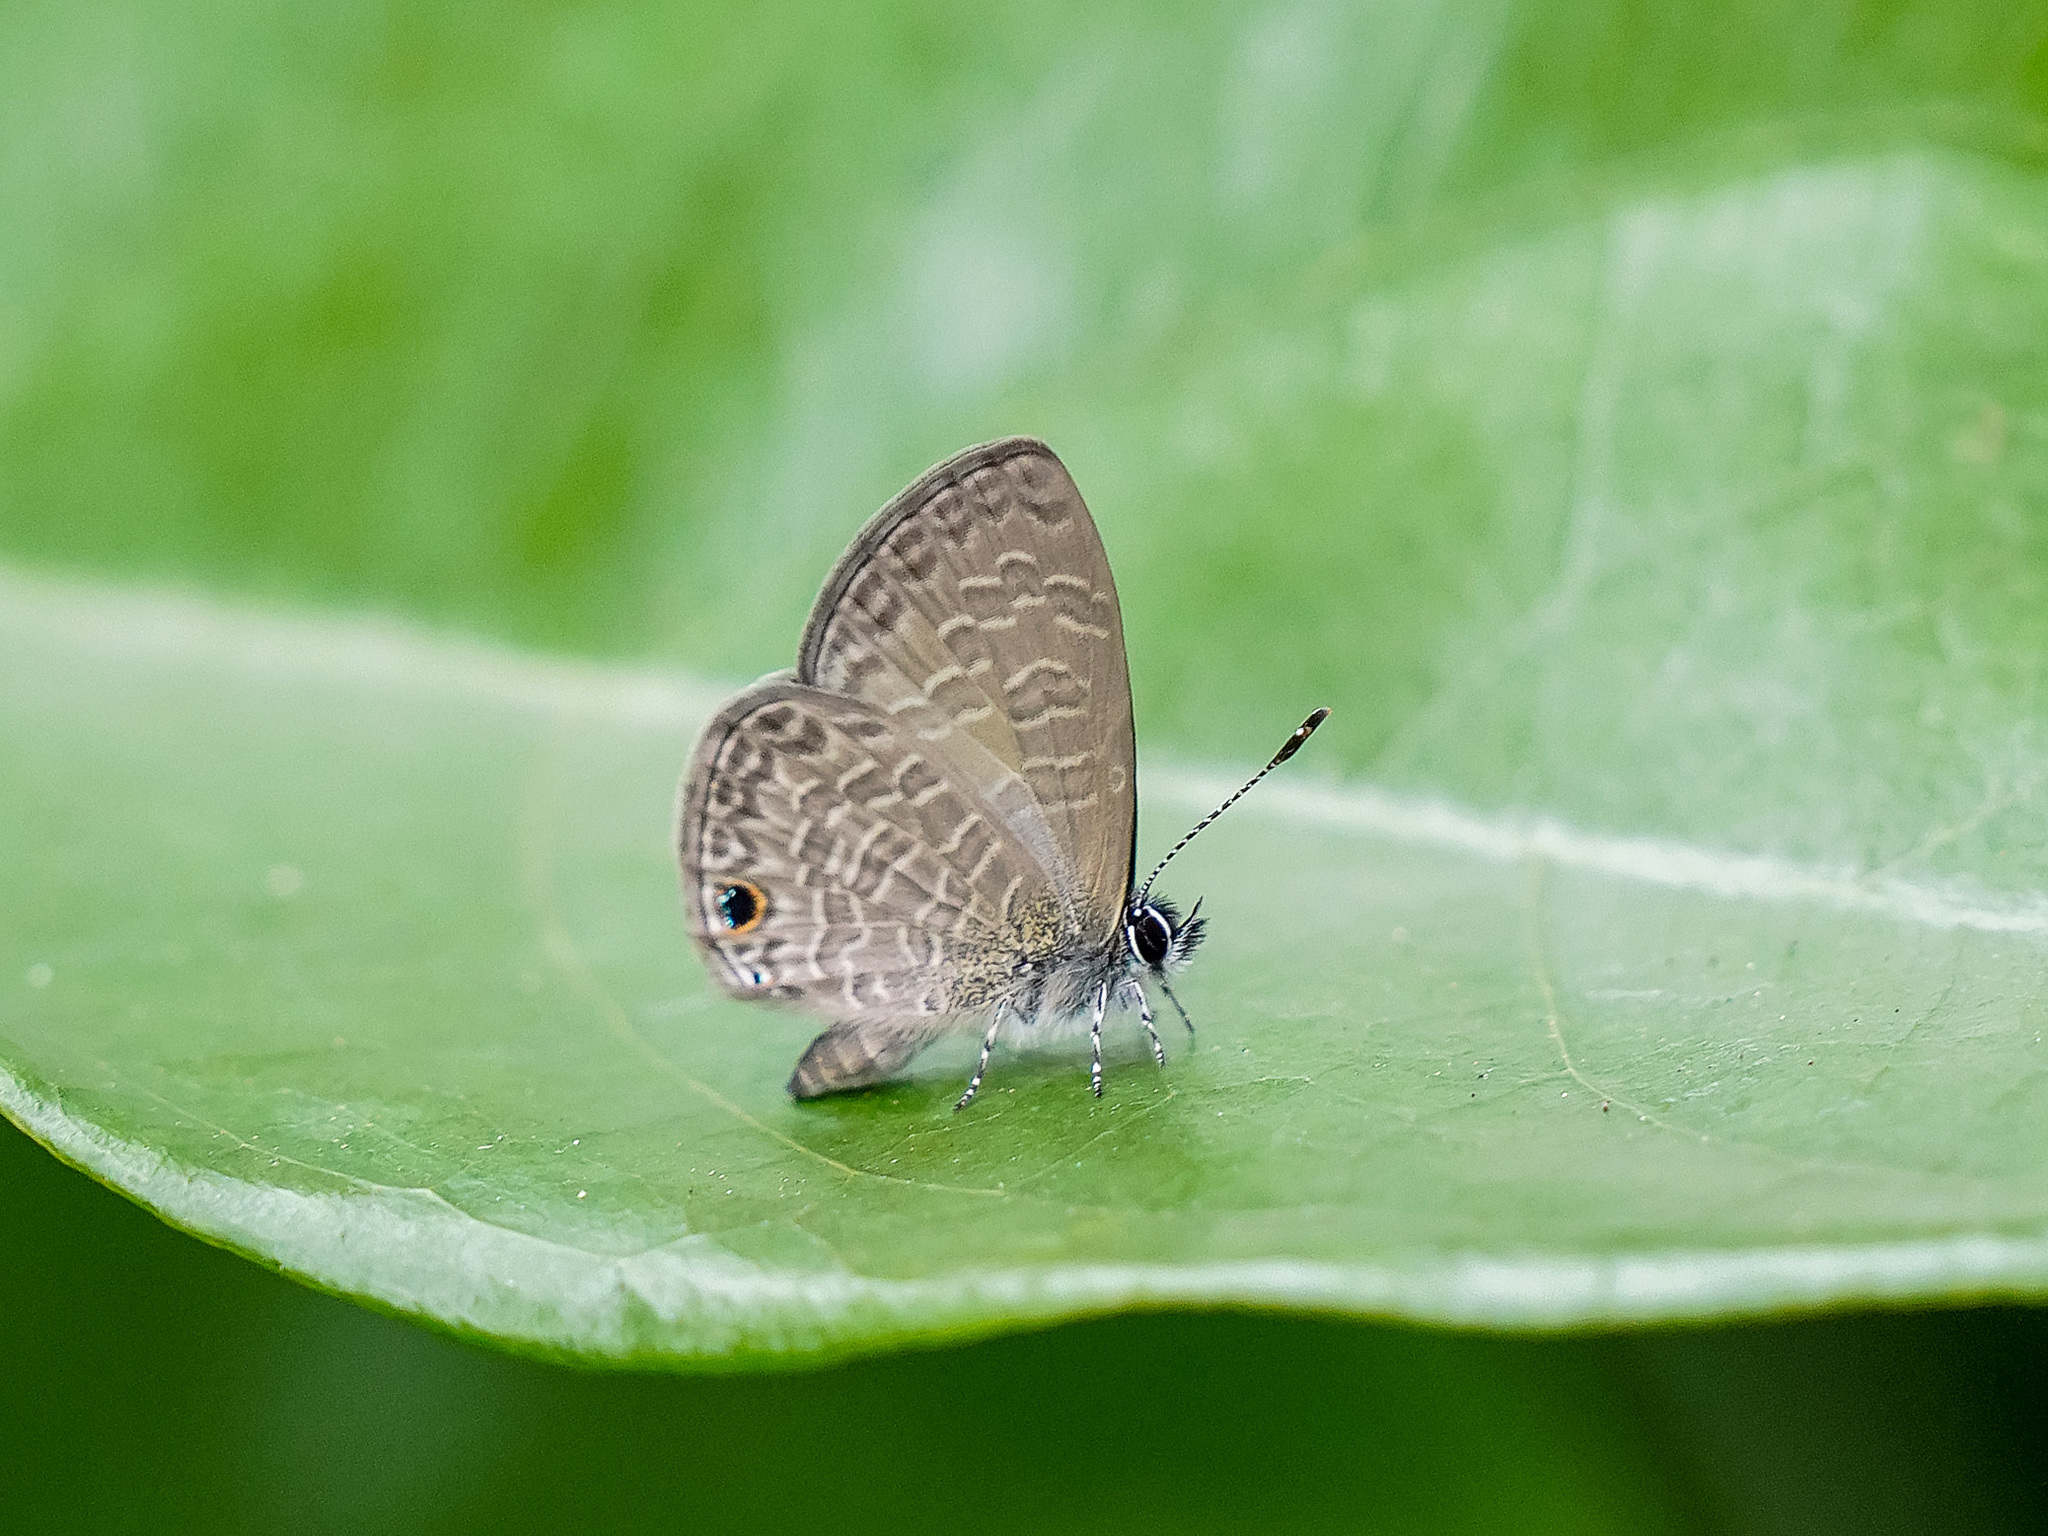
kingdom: Animalia
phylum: Arthropoda
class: Insecta
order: Lepidoptera
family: Lycaenidae
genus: Prosotas
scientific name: Prosotas dubiosa
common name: Tailless lineblue
